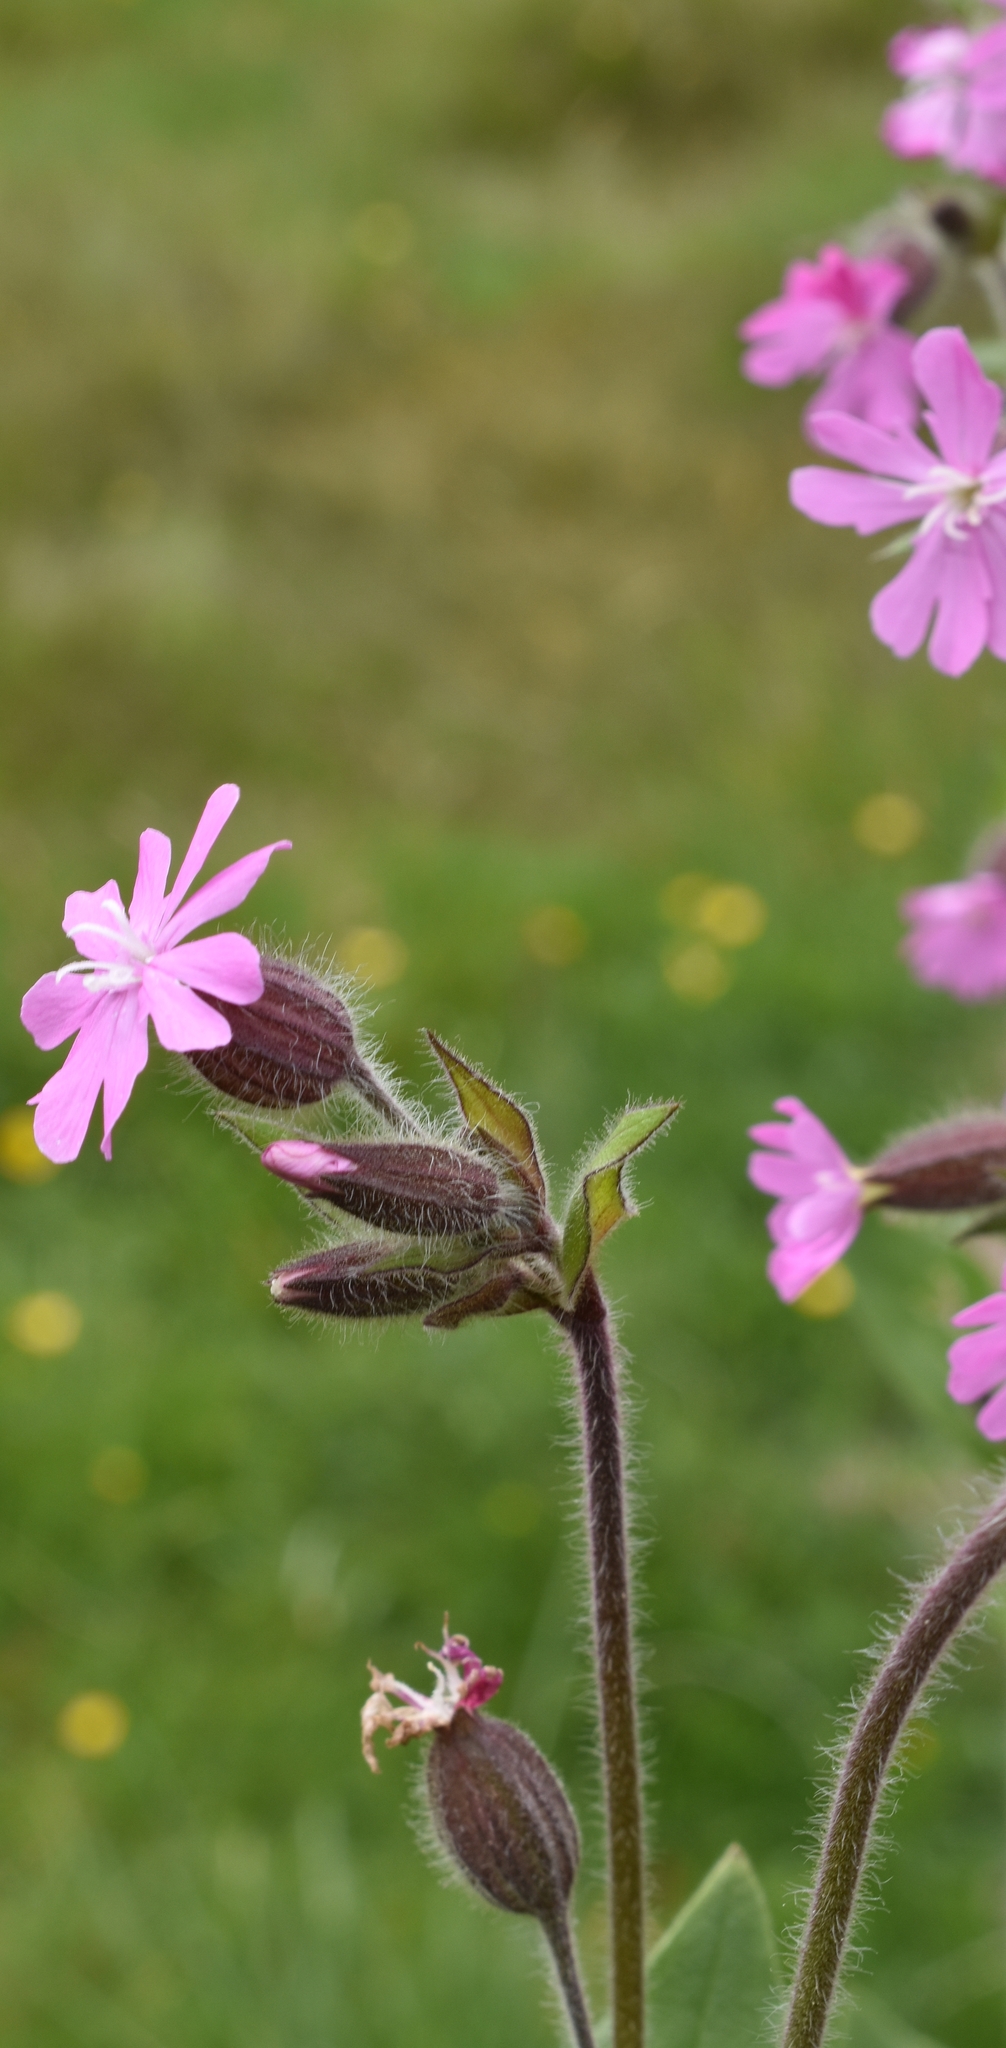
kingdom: Plantae
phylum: Tracheophyta
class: Magnoliopsida
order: Caryophyllales
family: Caryophyllaceae
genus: Silene
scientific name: Silene dioica
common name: Red campion
